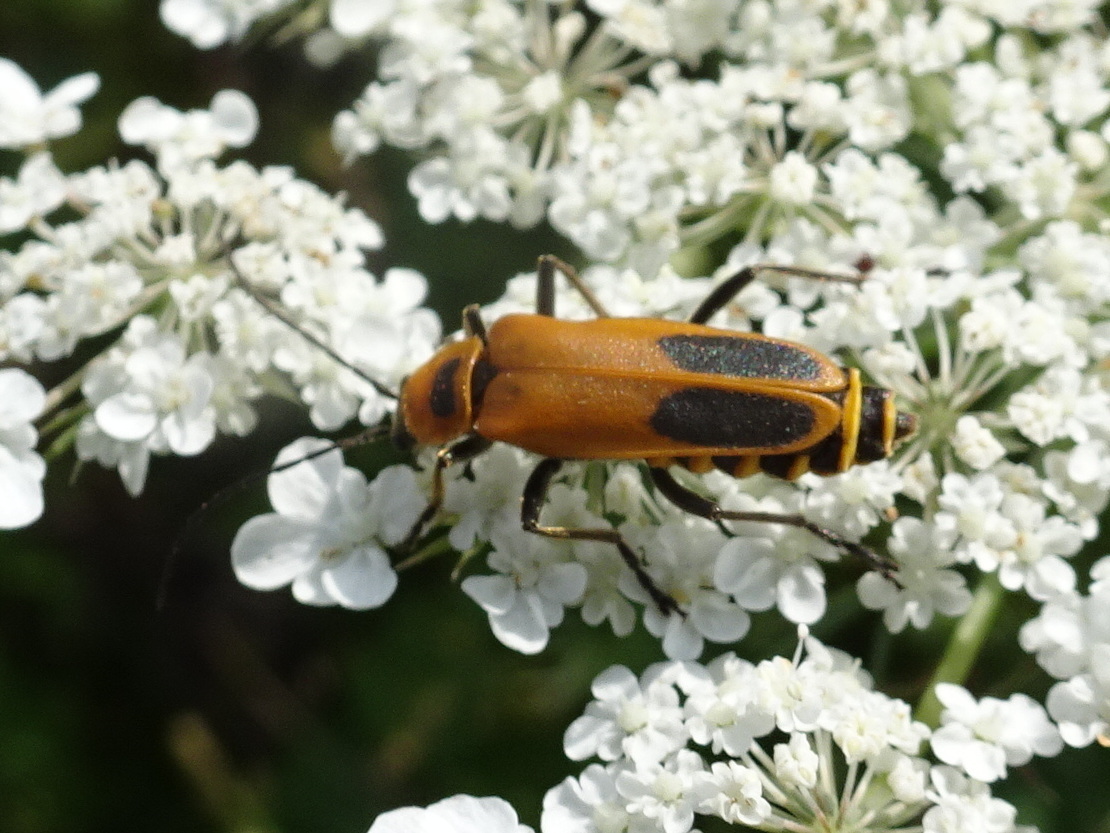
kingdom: Animalia
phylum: Arthropoda
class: Insecta
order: Coleoptera
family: Cantharidae
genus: Chauliognathus
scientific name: Chauliognathus pensylvanicus
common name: Goldenrod soldier beetle
